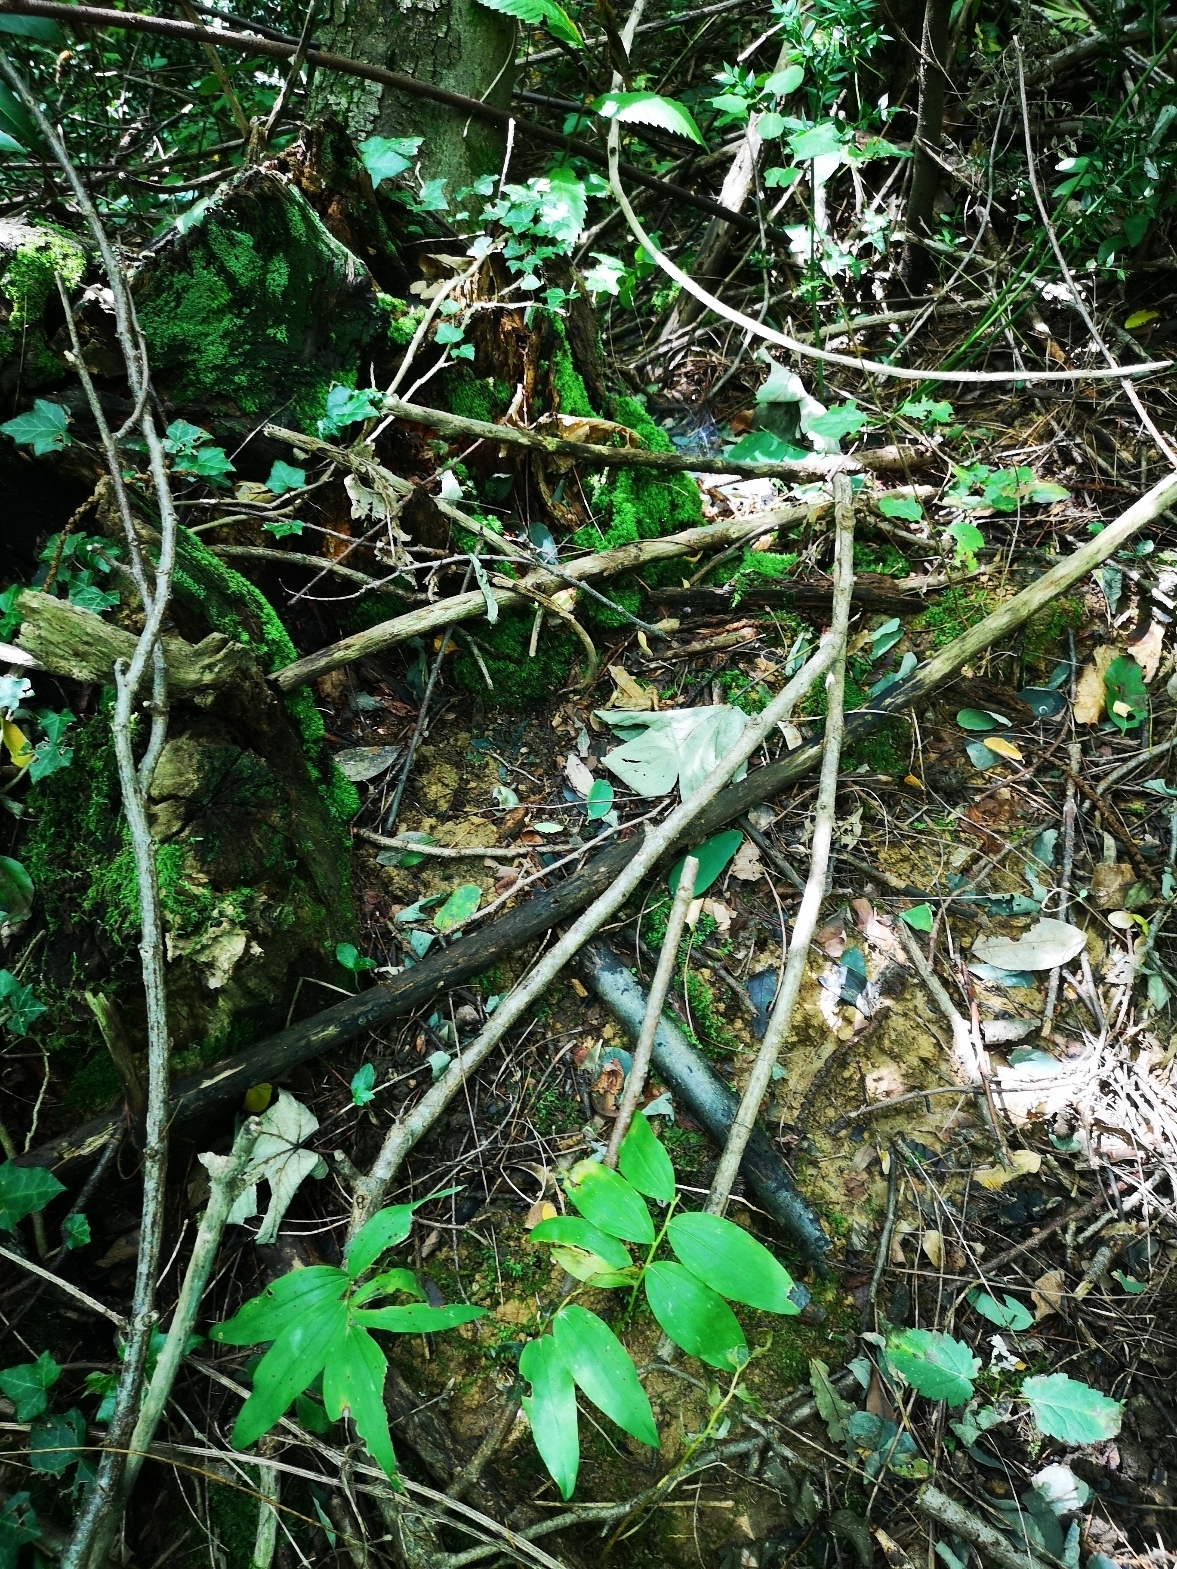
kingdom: Animalia
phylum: Chordata
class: Amphibia
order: Anura
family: Ranidae
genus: Rana
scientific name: Rana latastei
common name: Italian agile frog
